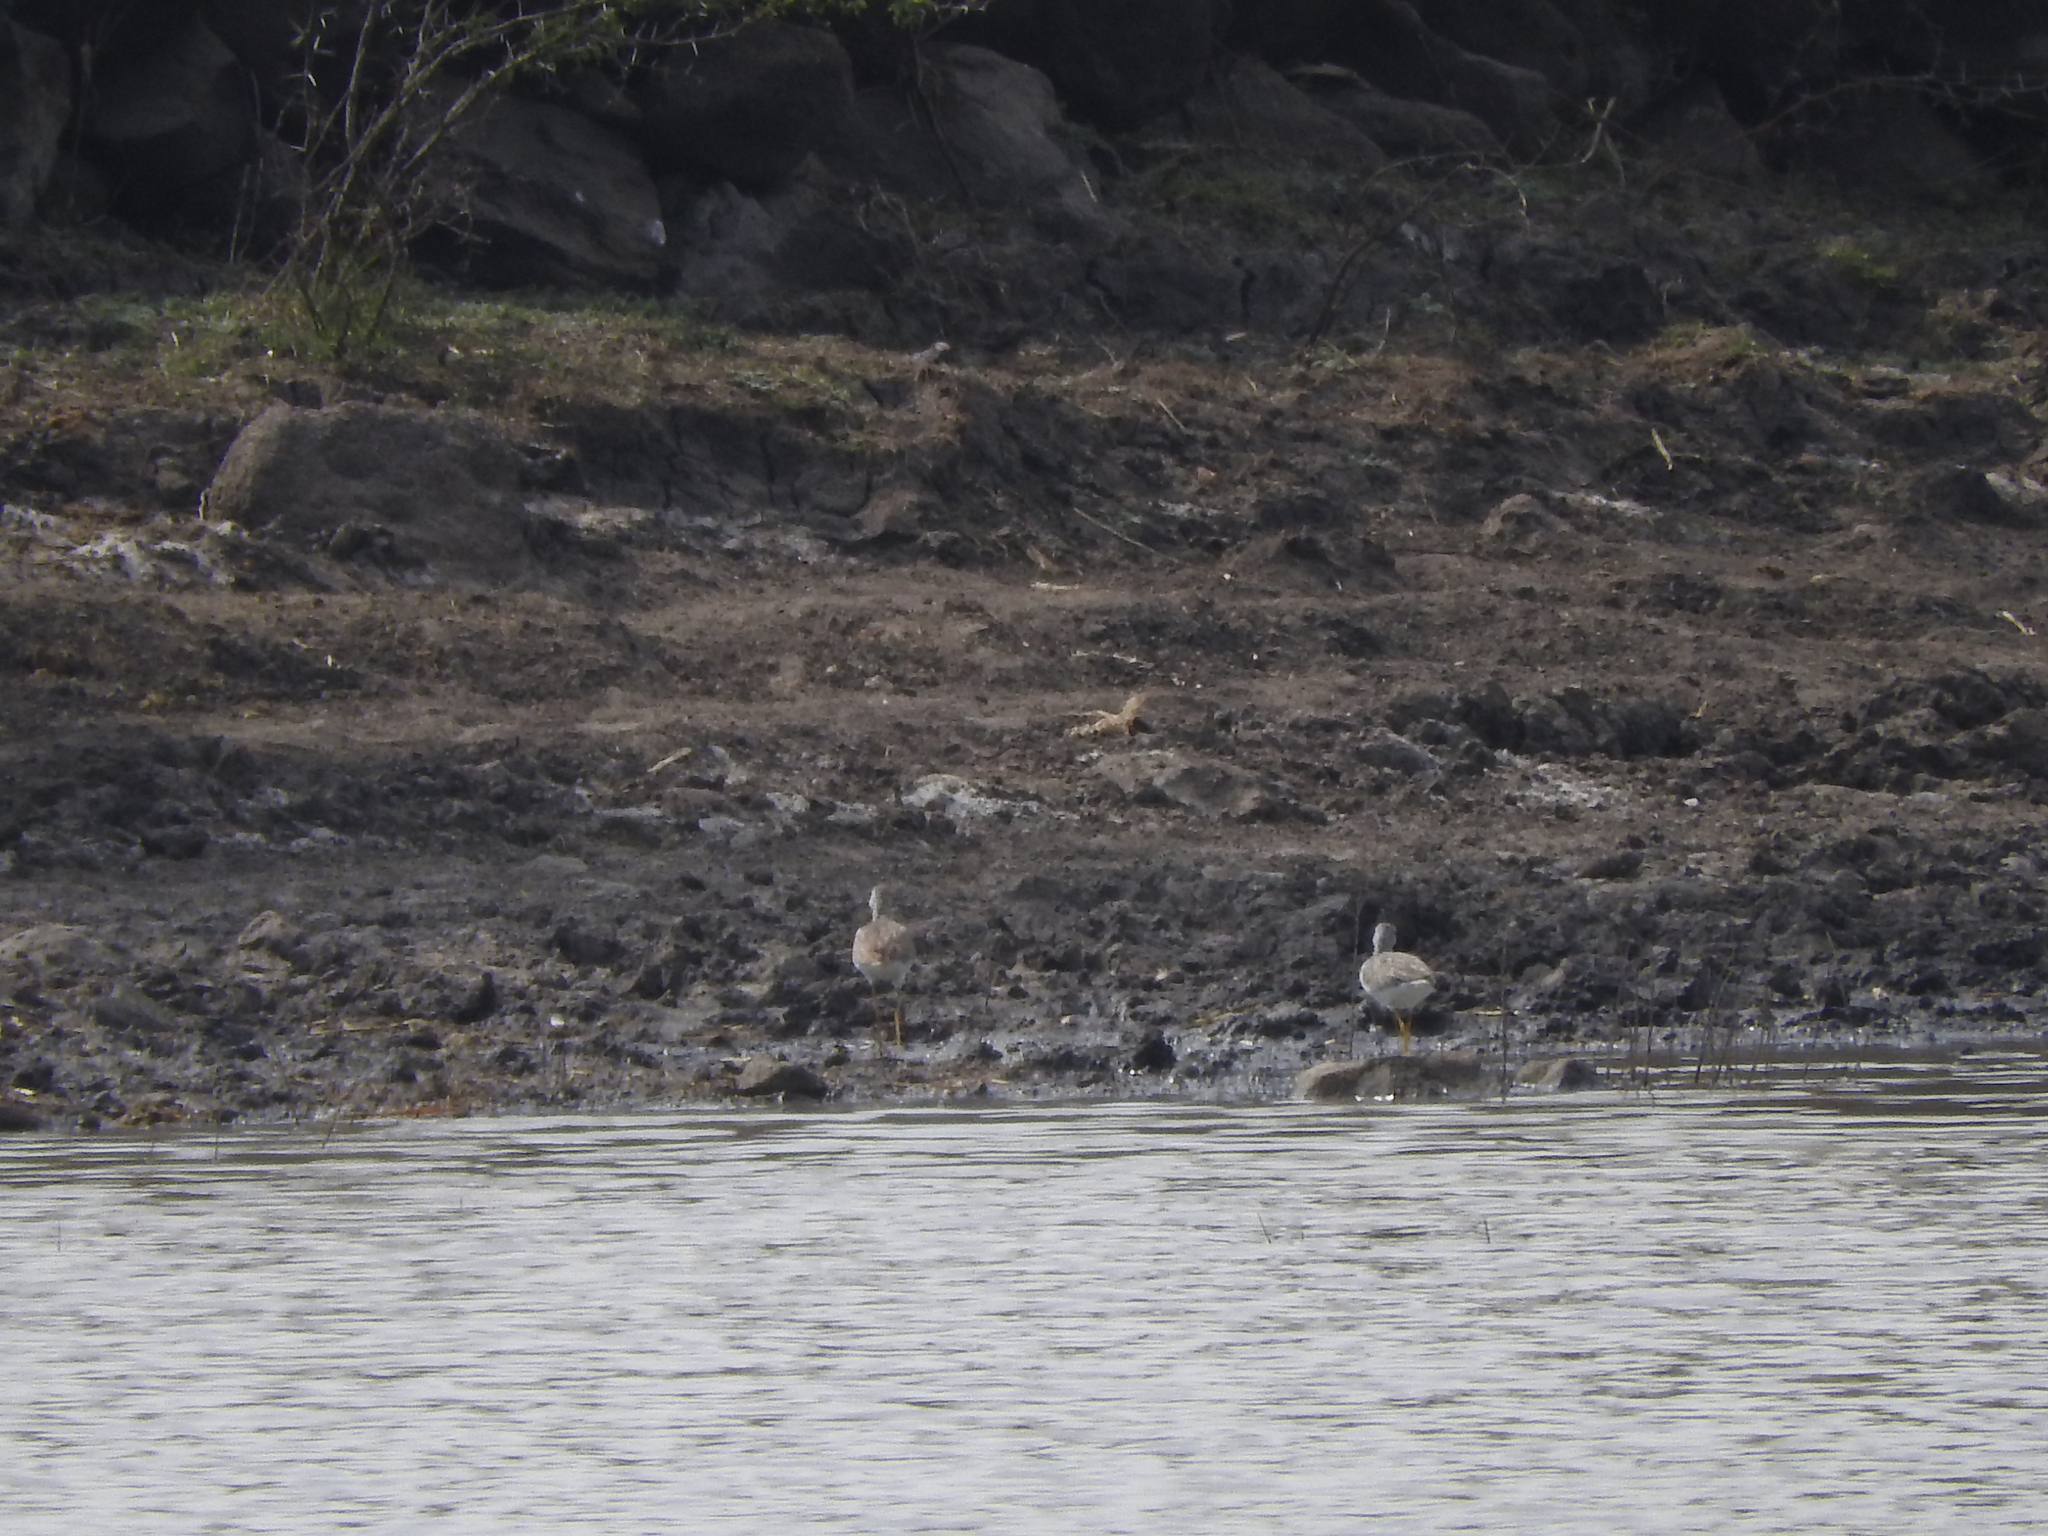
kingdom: Animalia
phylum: Chordata
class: Aves
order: Charadriiformes
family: Scolopacidae
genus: Tringa
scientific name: Tringa melanoleuca
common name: Greater yellowlegs
